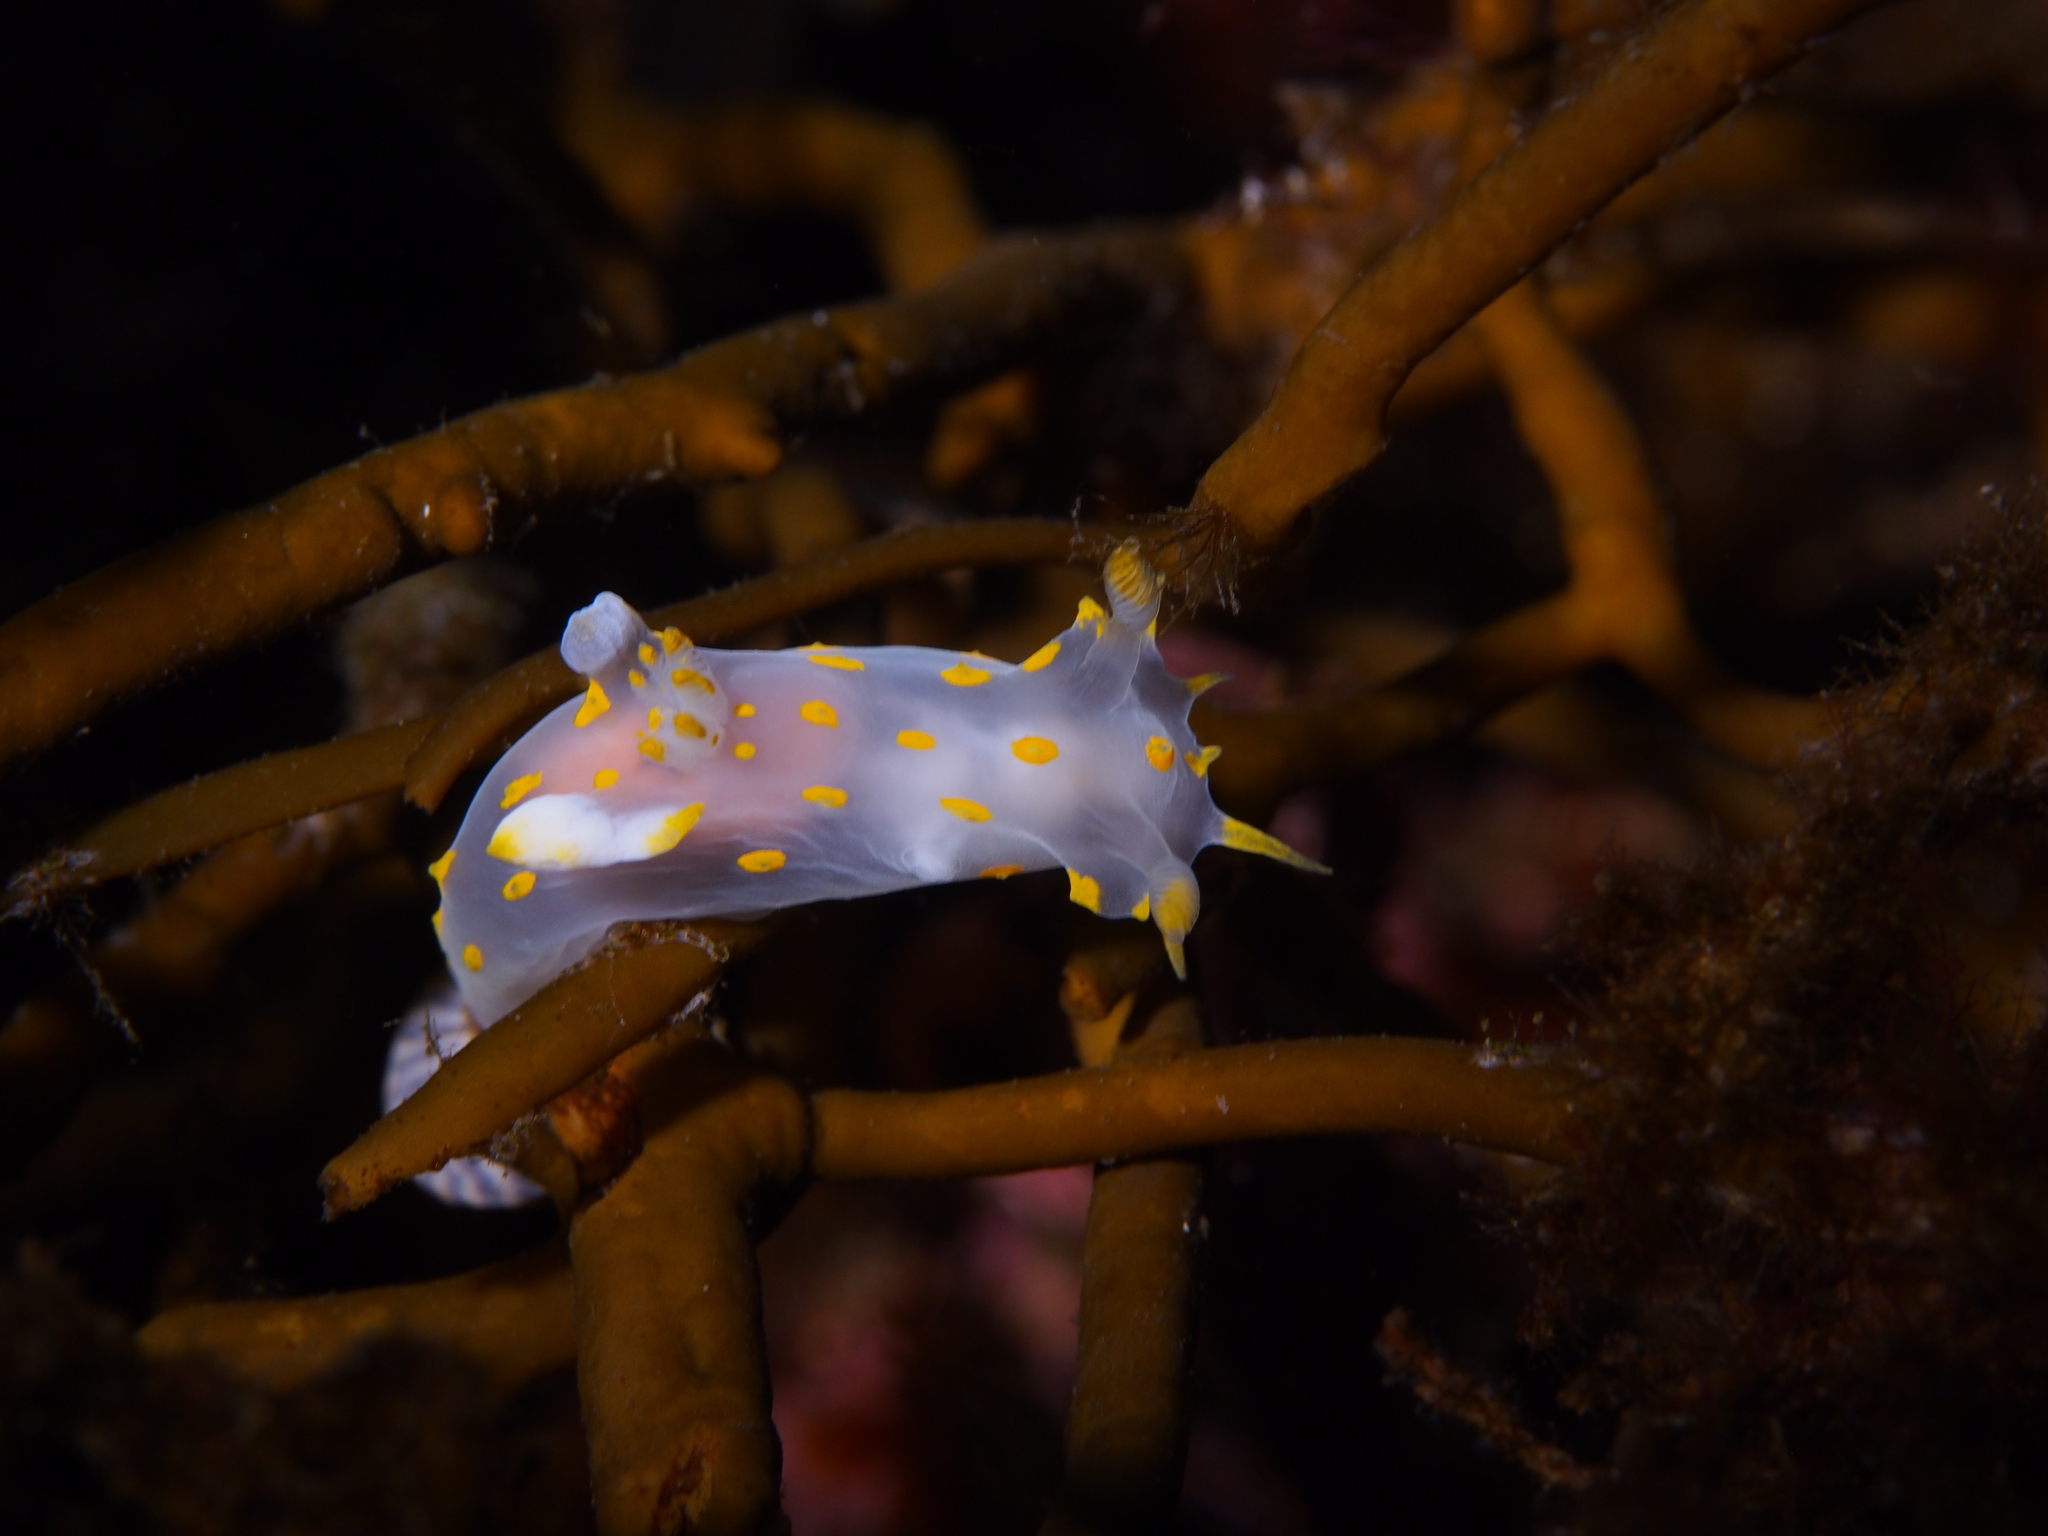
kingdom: Animalia
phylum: Mollusca
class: Gastropoda
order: Nudibranchia
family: Polyceridae
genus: Polycera
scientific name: Polycera quadrilineata
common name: Four-striped polycera
